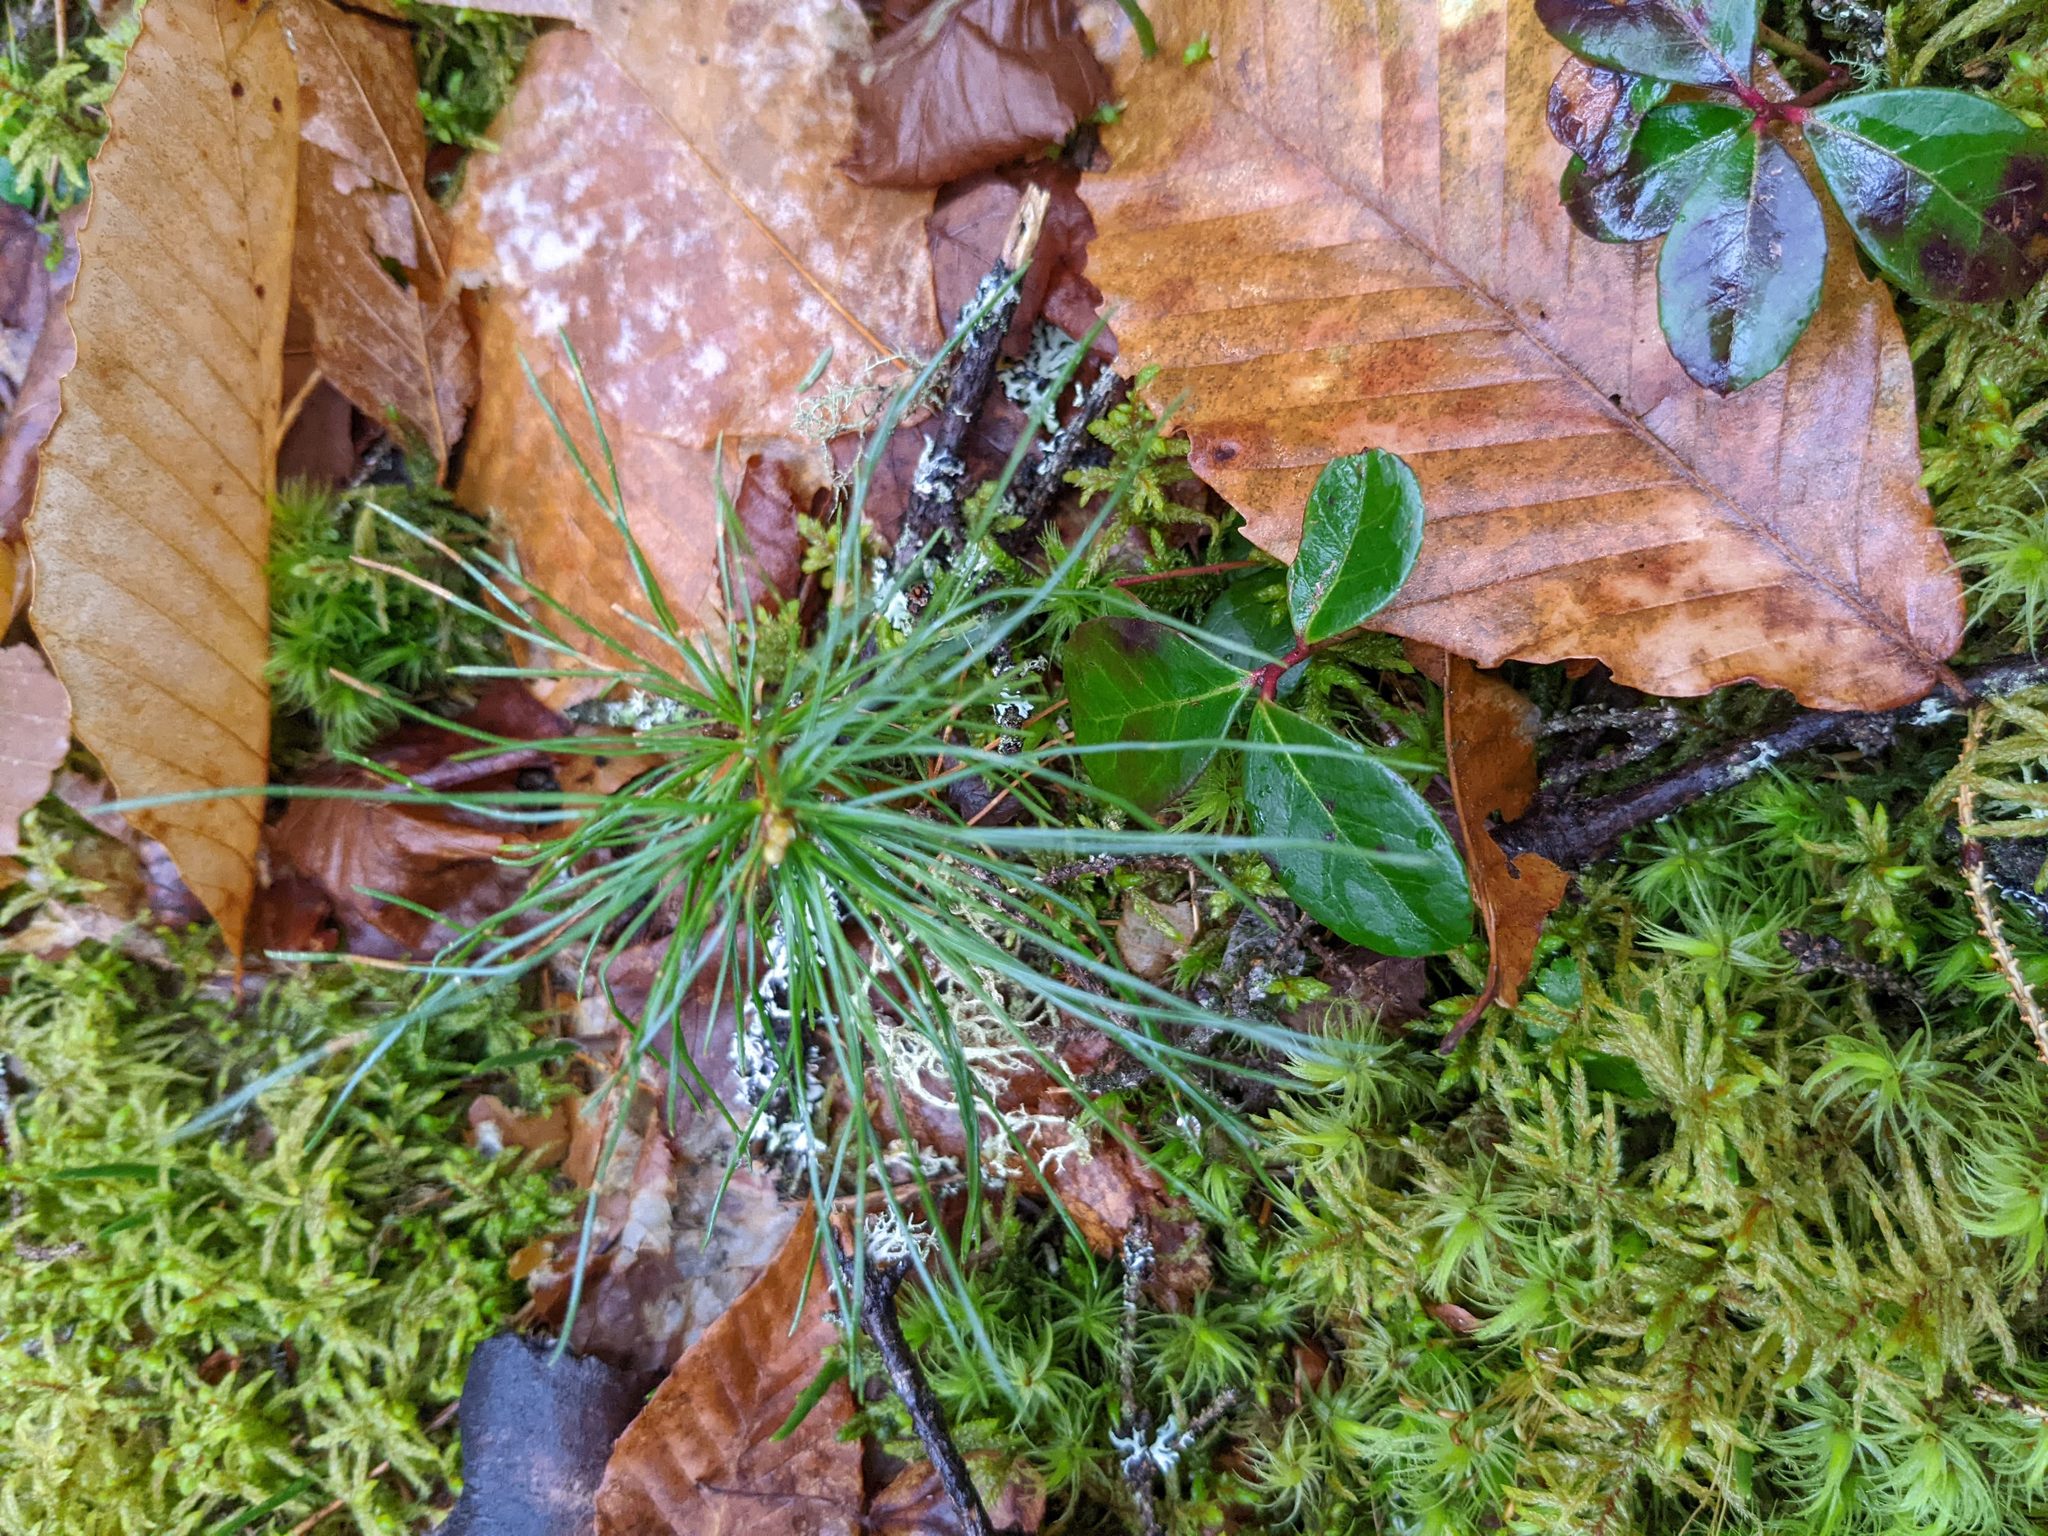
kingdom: Plantae
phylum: Tracheophyta
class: Pinopsida
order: Pinales
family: Pinaceae
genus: Pinus
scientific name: Pinus strobus
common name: Weymouth pine
